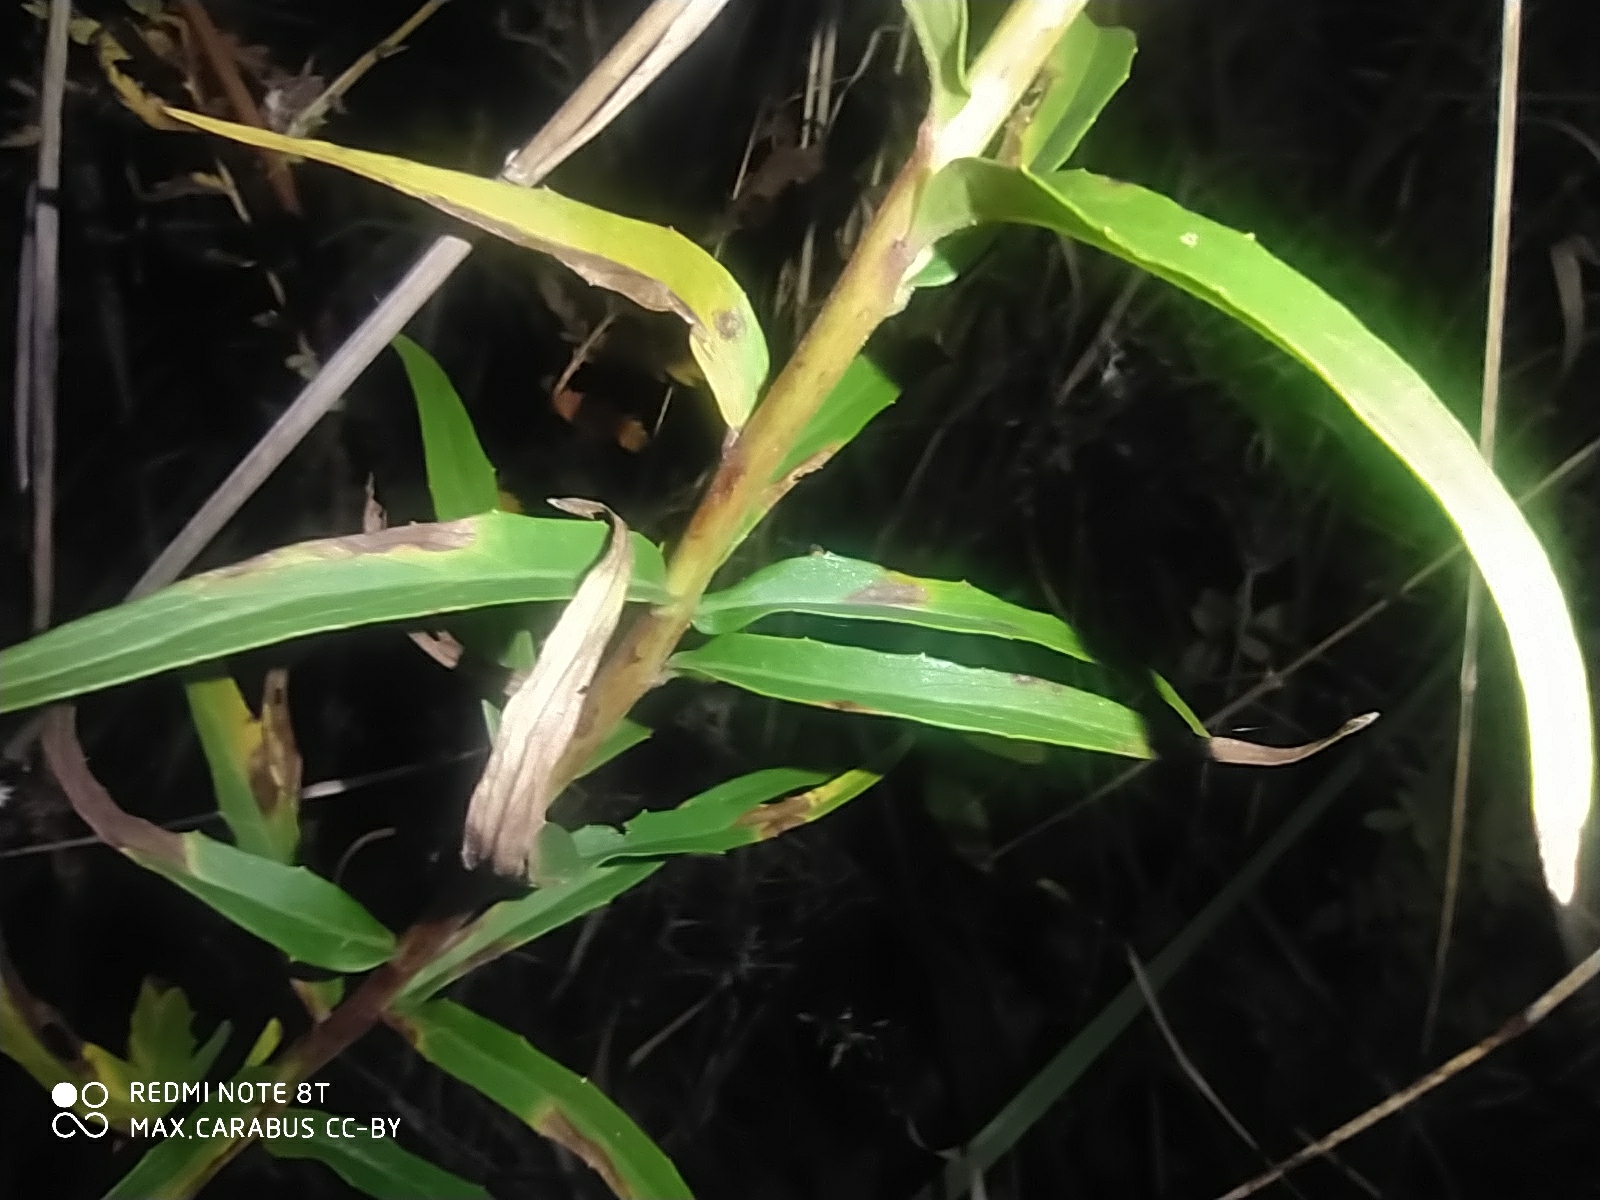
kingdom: Plantae
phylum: Tracheophyta
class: Magnoliopsida
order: Asterales
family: Asteraceae
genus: Hieracium
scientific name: Hieracium umbellatum
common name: Northern hawkweed
